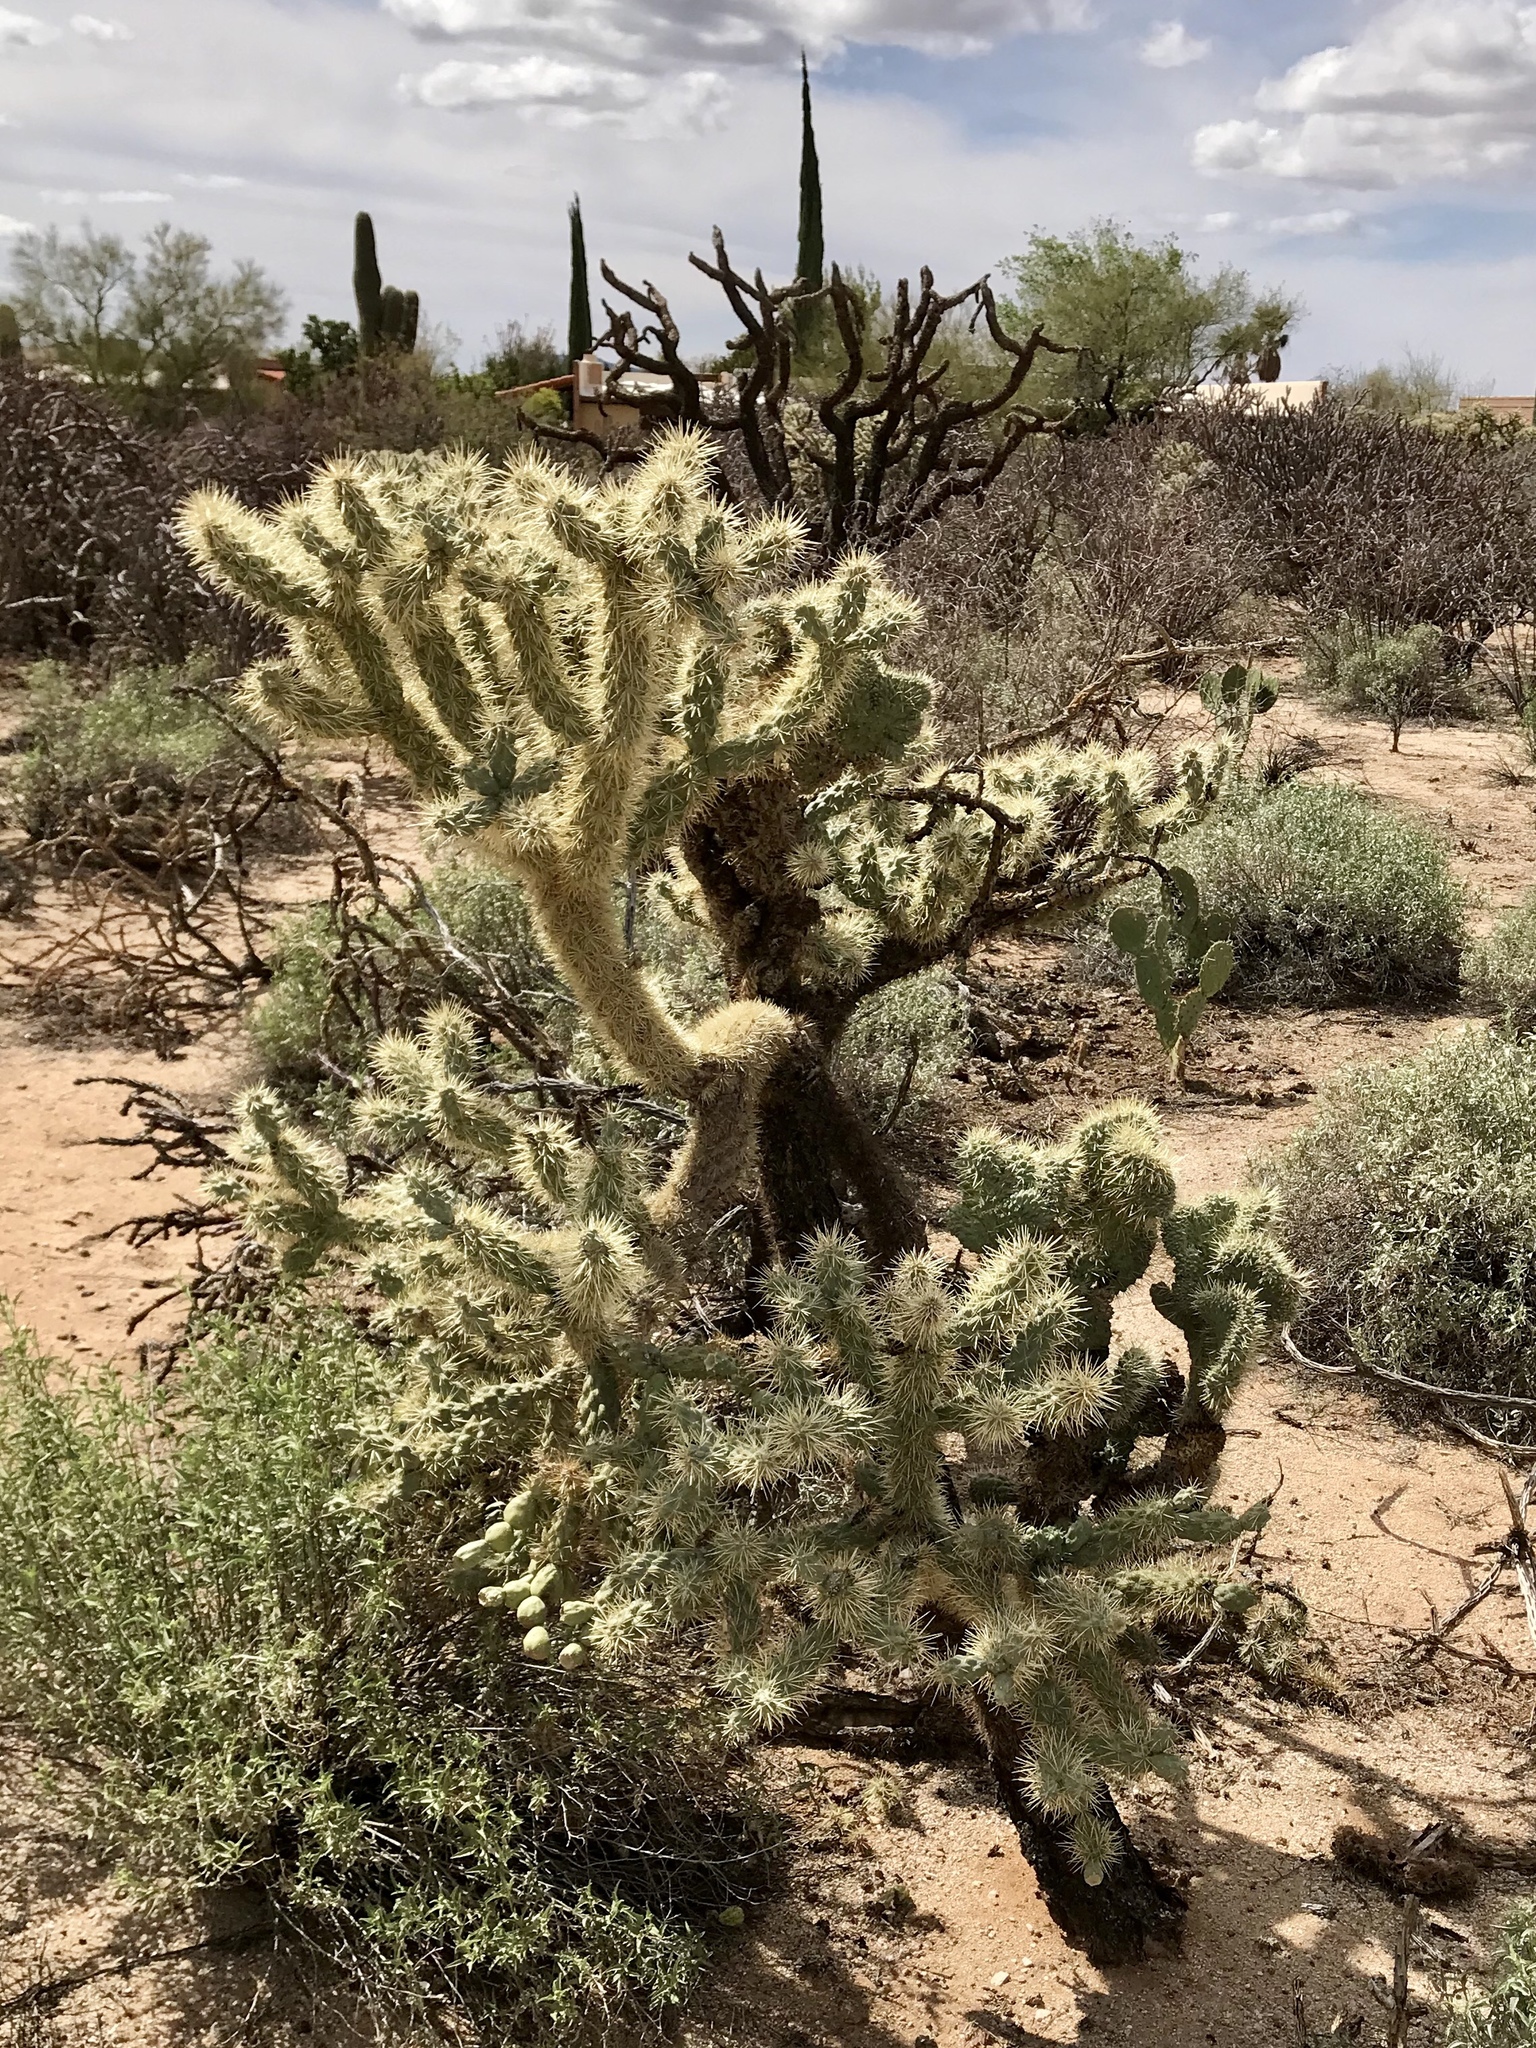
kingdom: Plantae
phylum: Tracheophyta
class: Magnoliopsida
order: Caryophyllales
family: Cactaceae
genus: Cylindropuntia
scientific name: Cylindropuntia fulgida
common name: Jumping cholla
